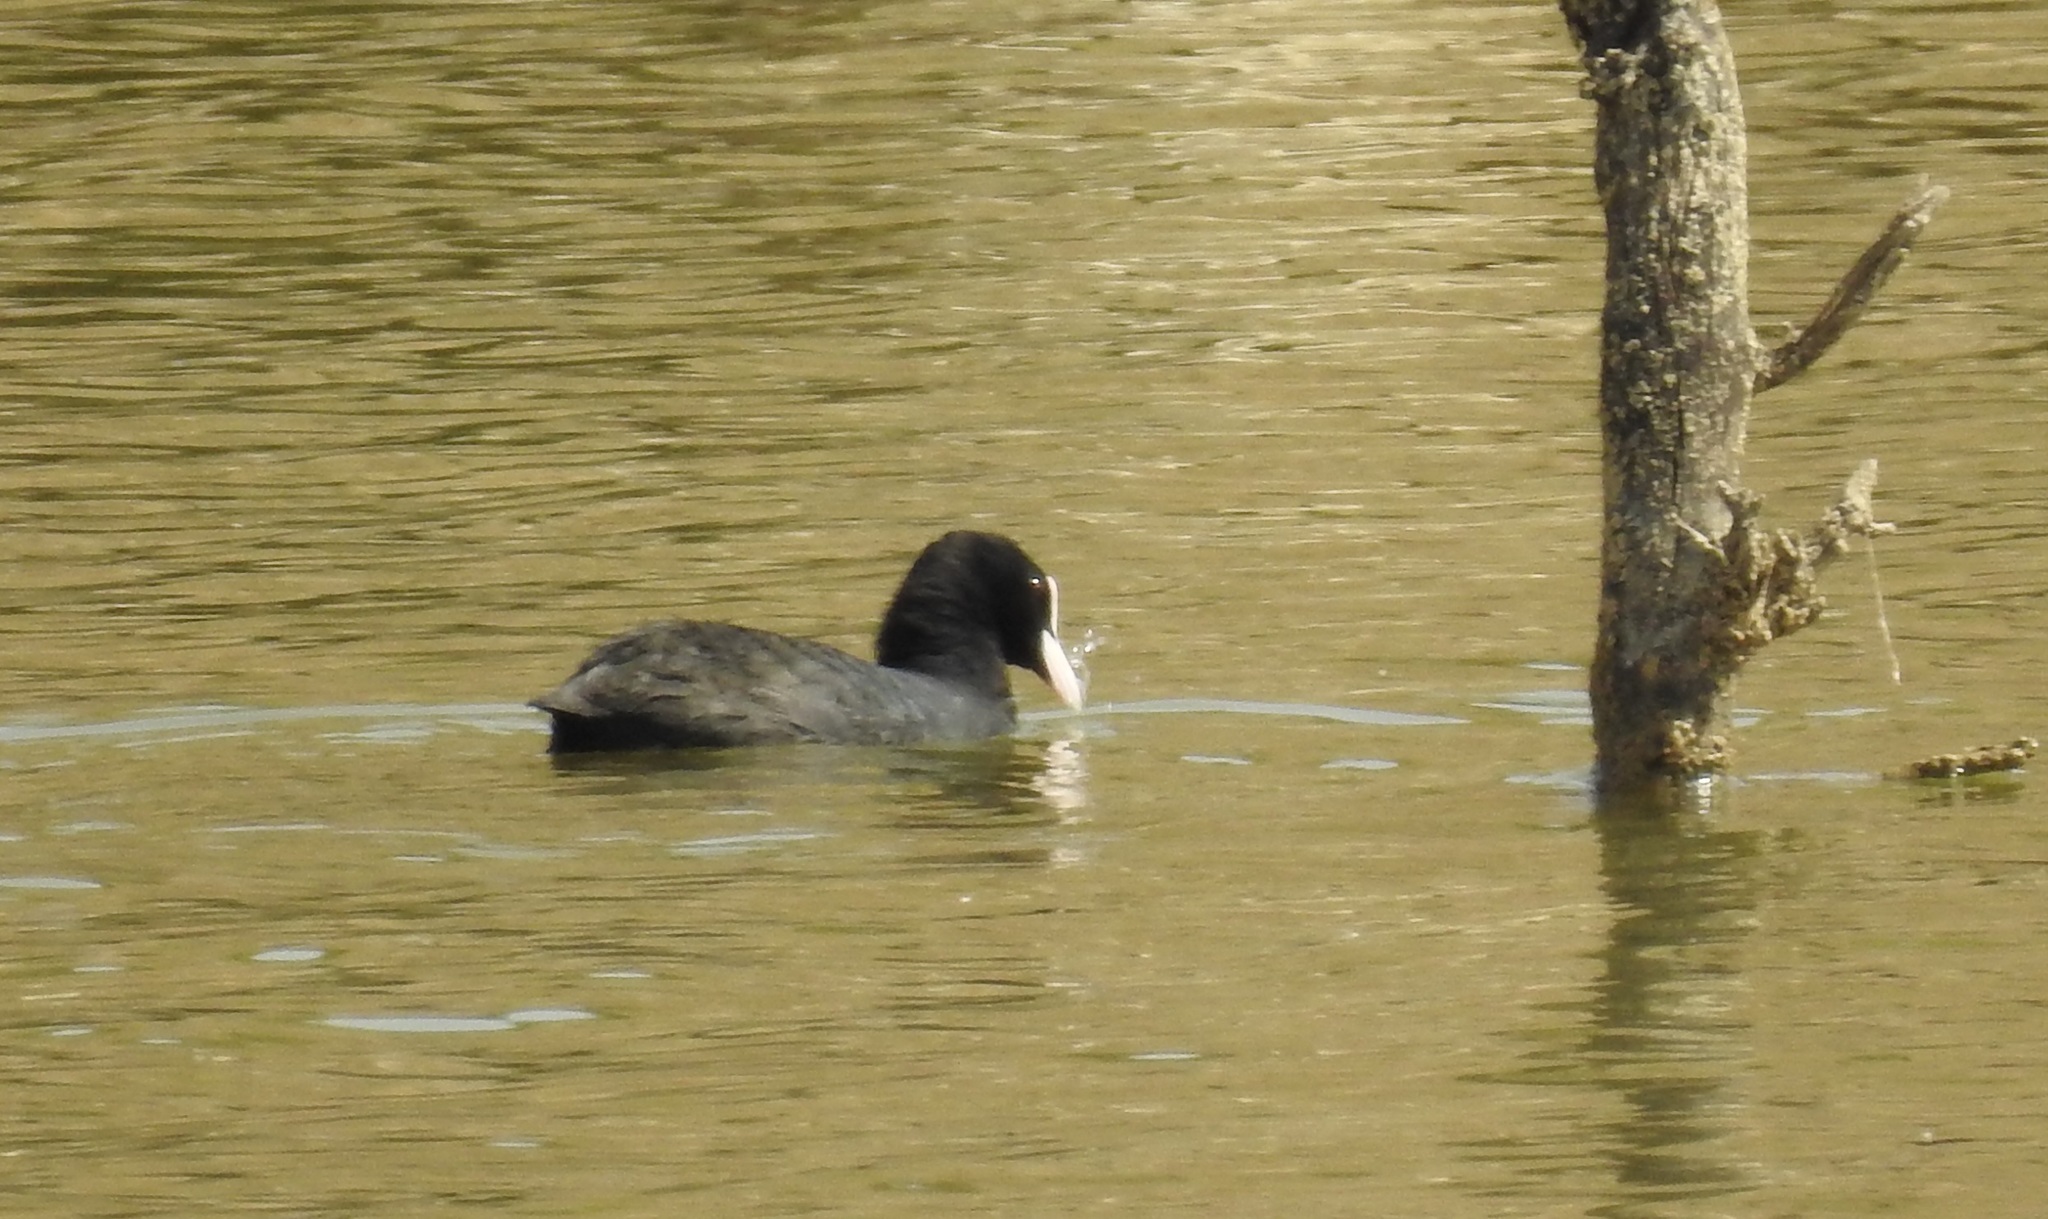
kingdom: Animalia
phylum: Chordata
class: Aves
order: Gruiformes
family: Rallidae
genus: Fulica
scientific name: Fulica atra
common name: Eurasian coot
